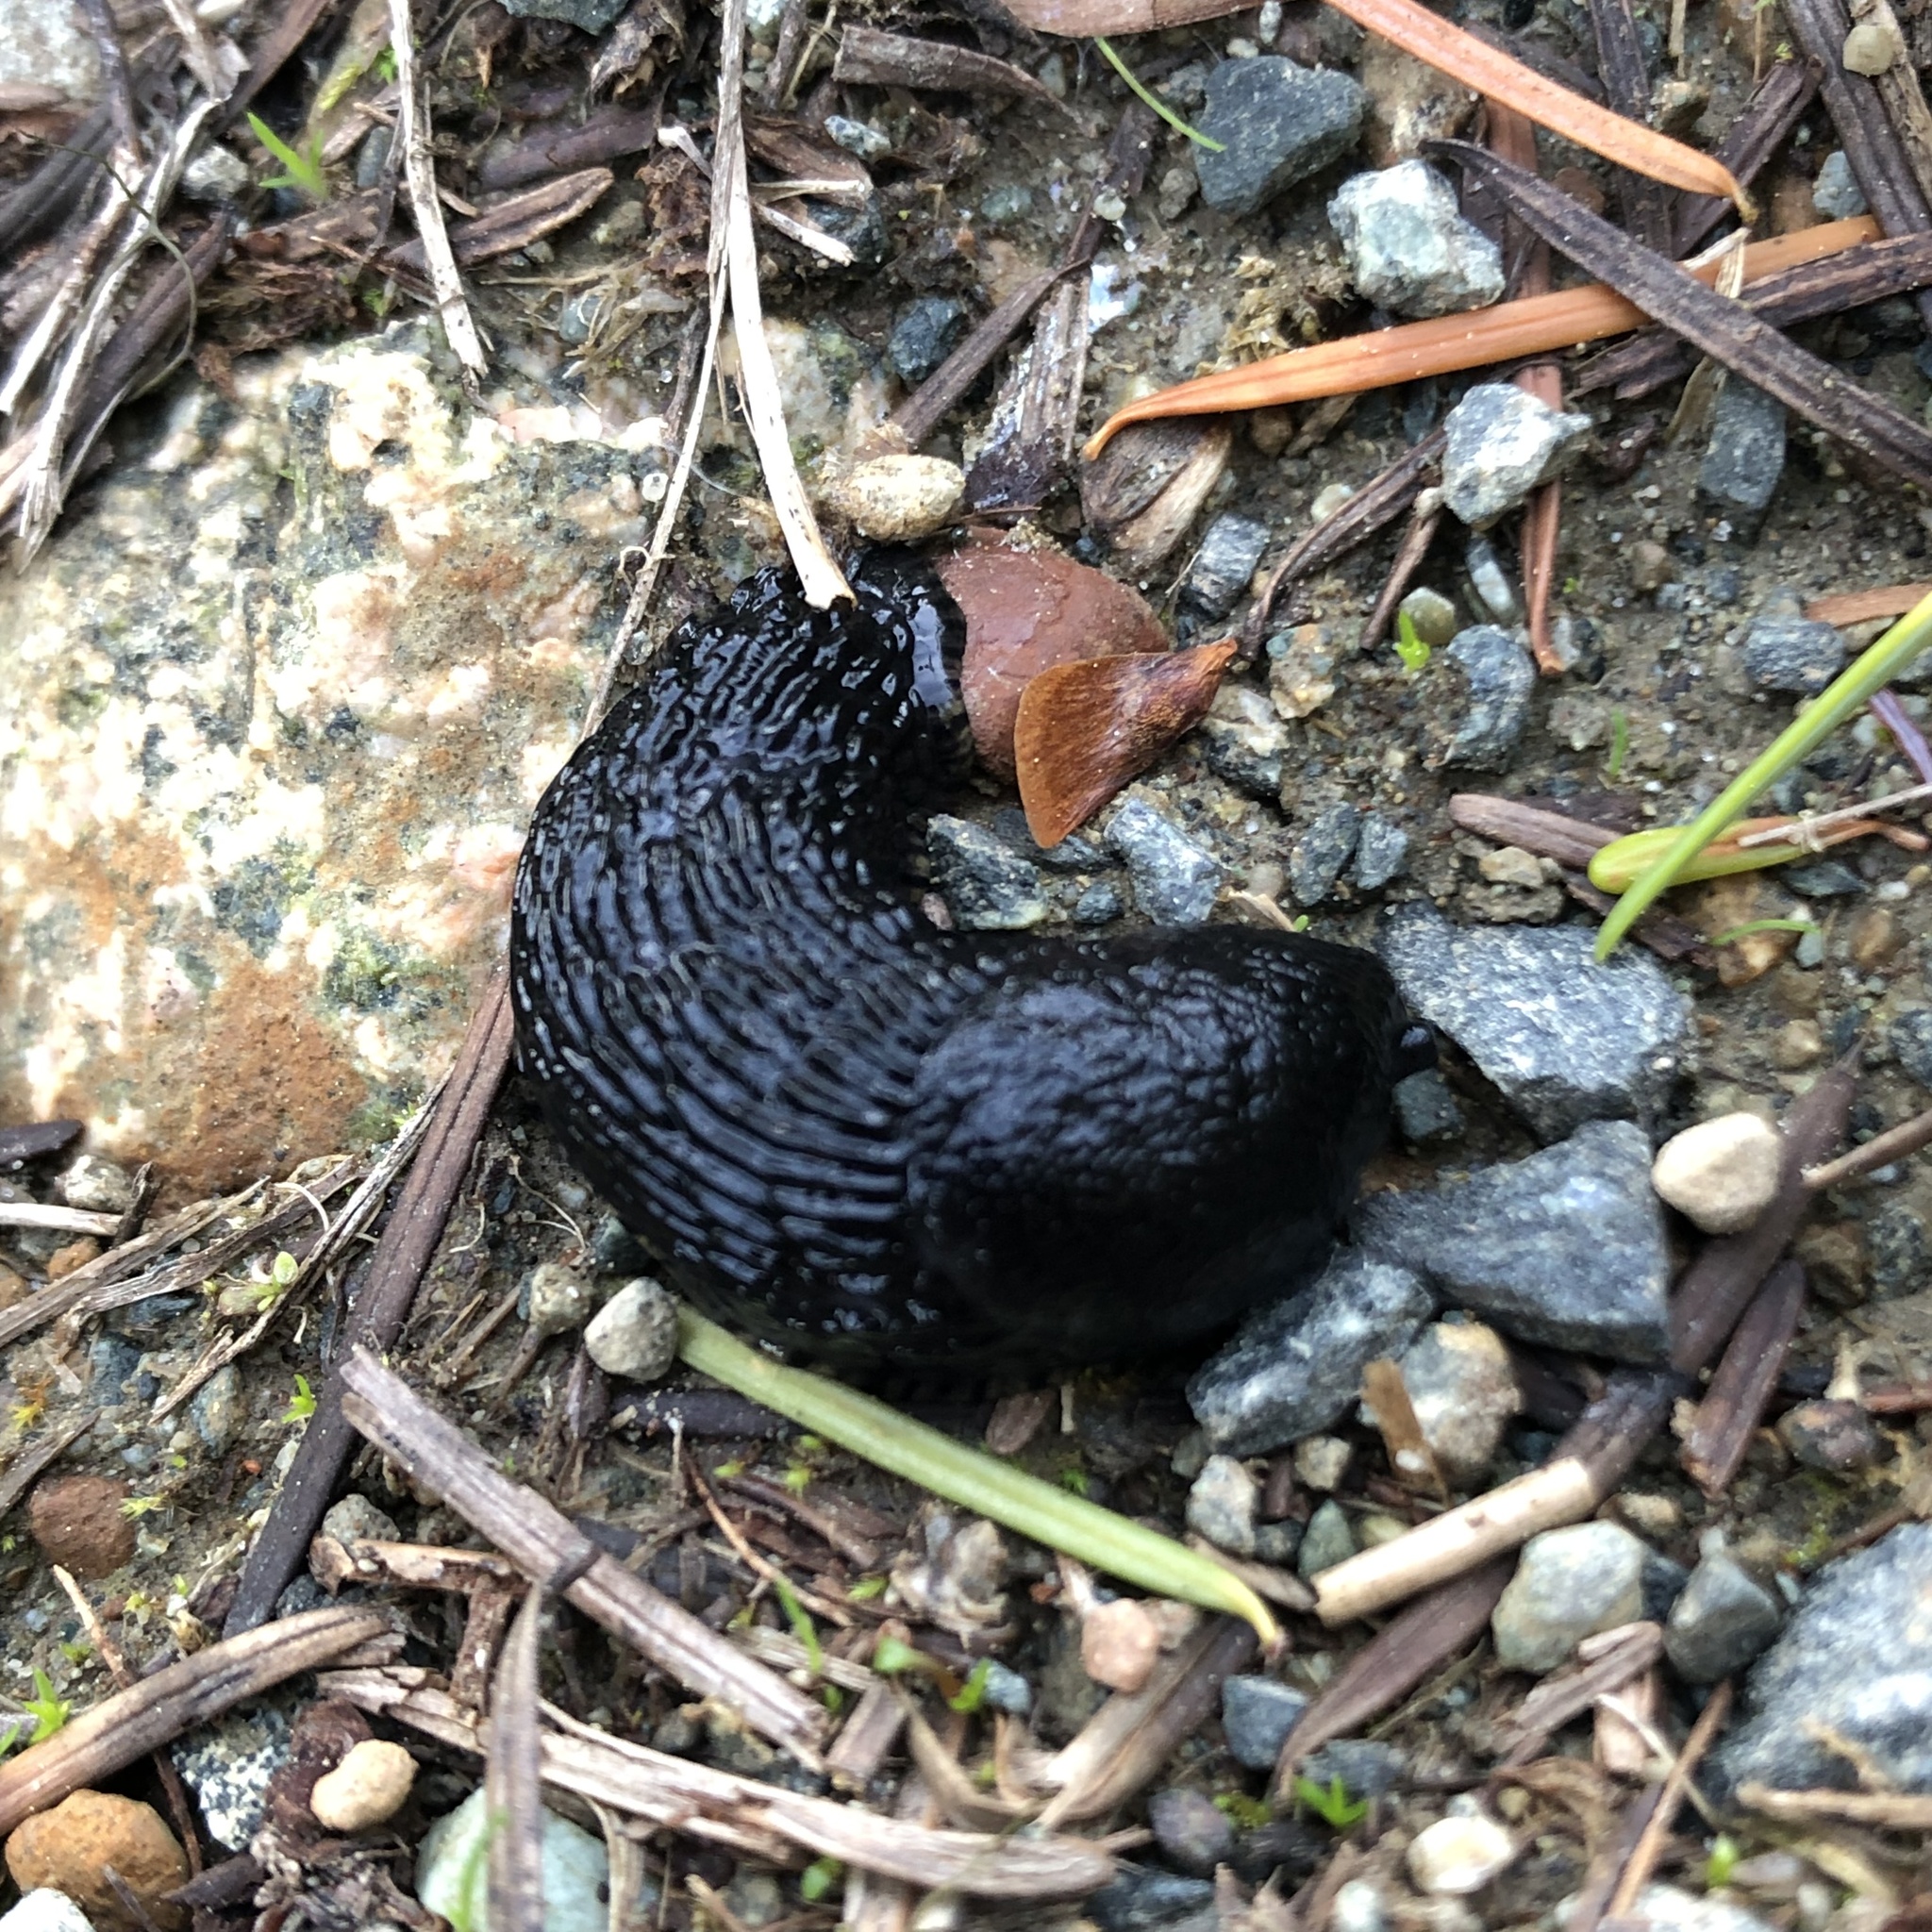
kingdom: Animalia
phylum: Mollusca
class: Gastropoda
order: Stylommatophora
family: Arionidae
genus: Arion
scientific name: Arion
